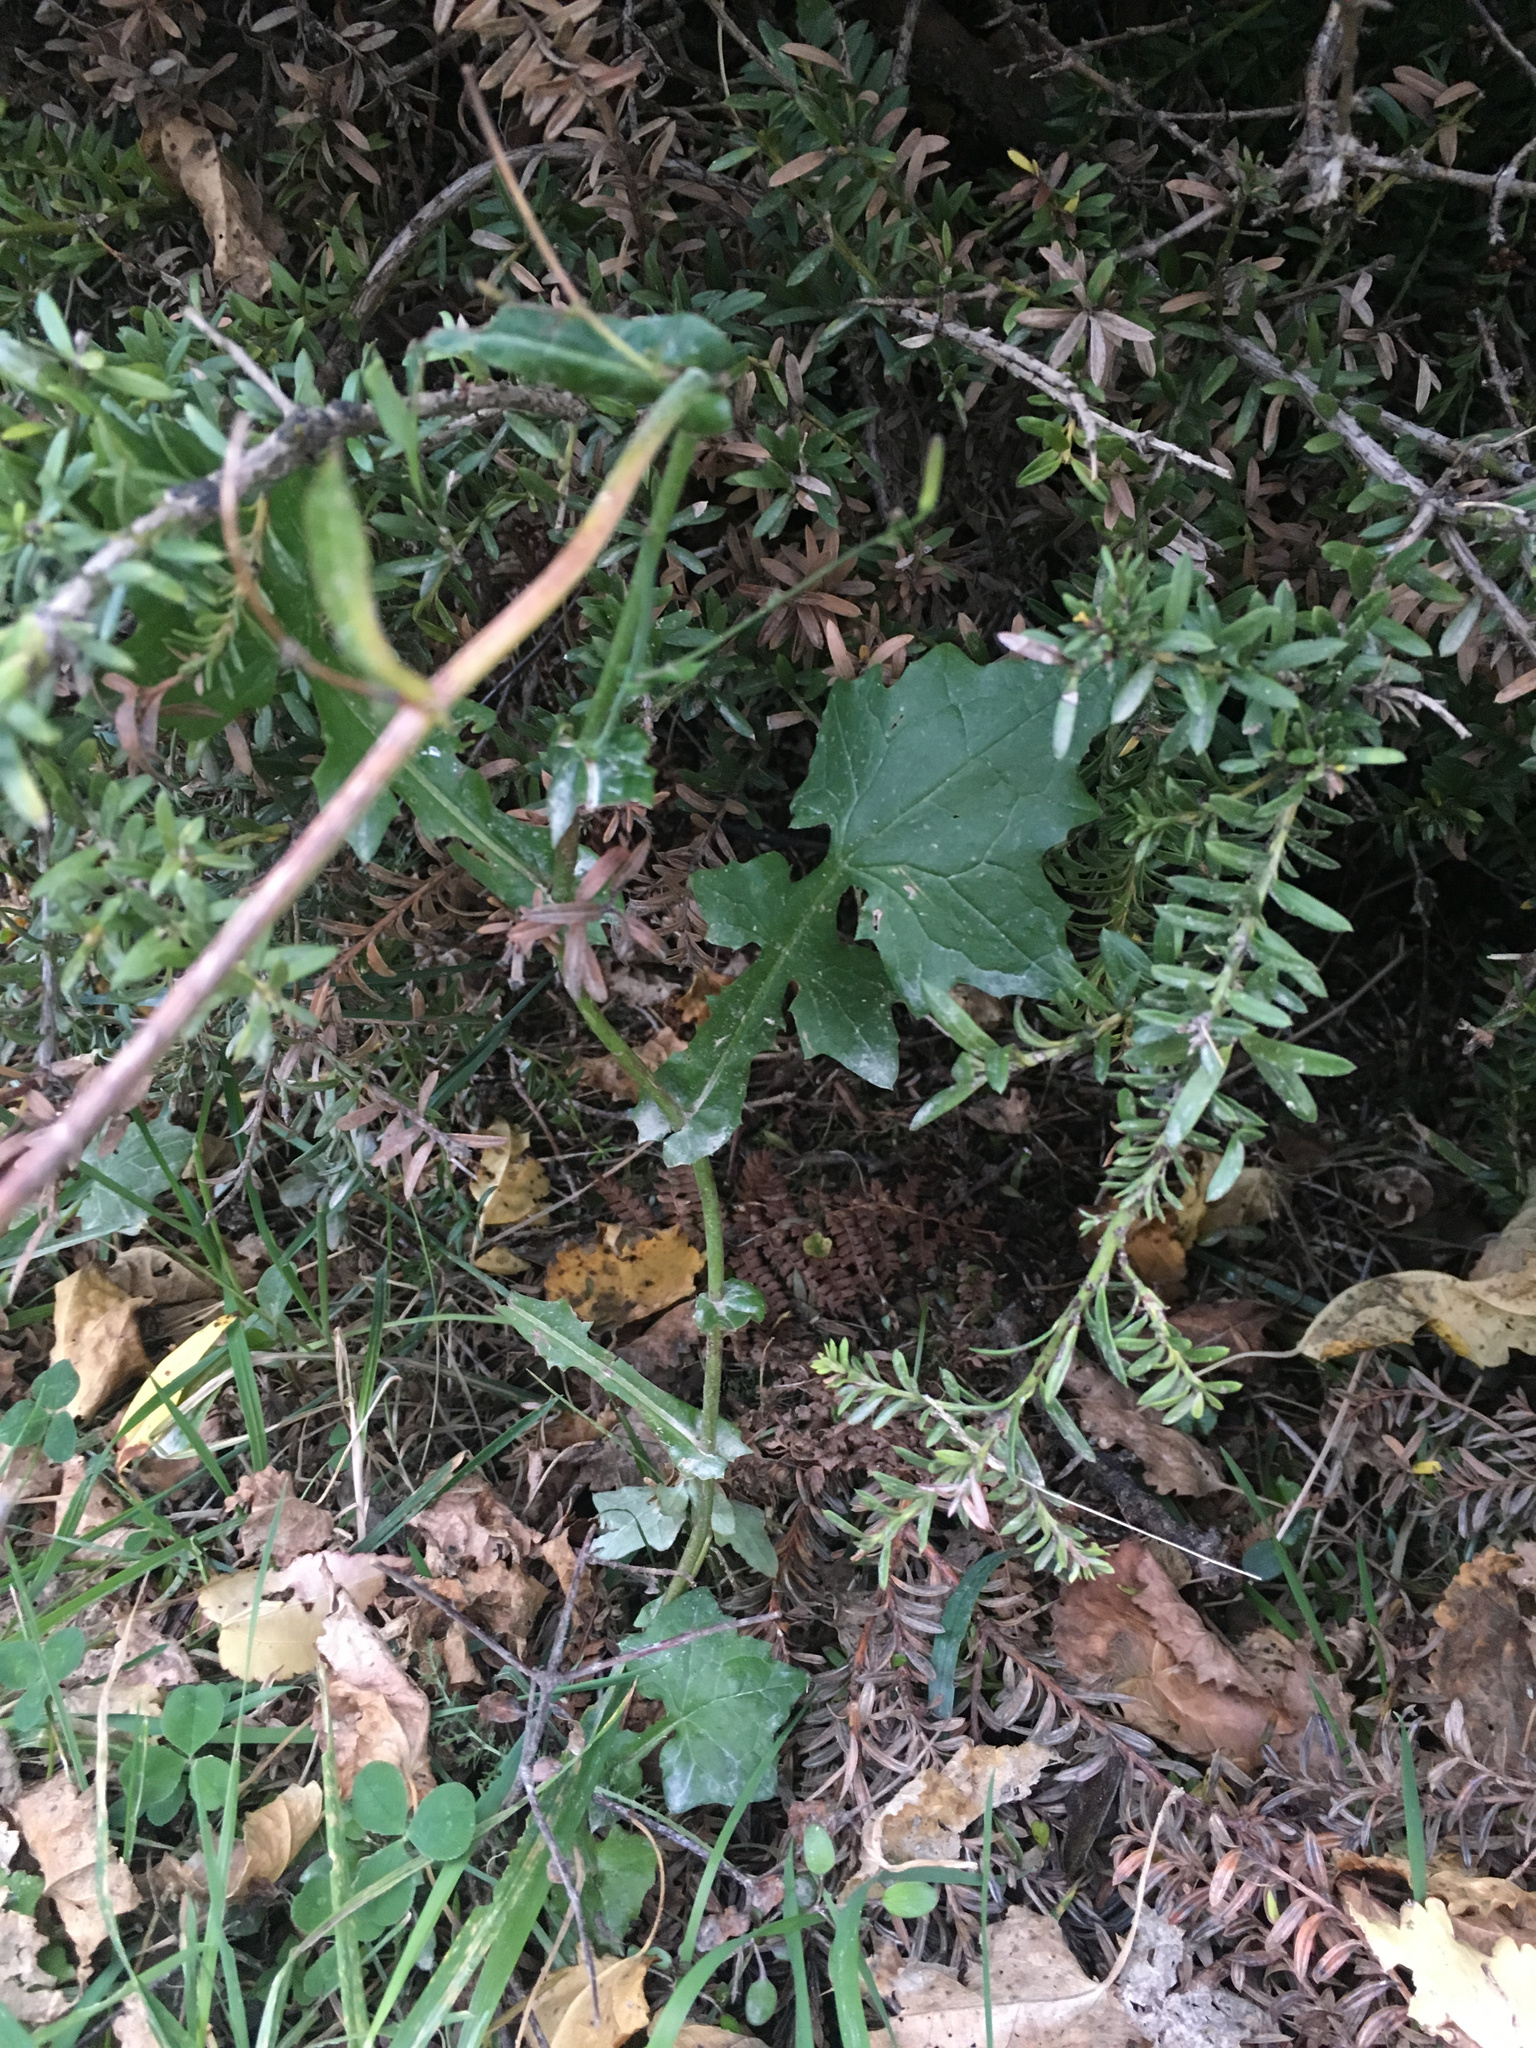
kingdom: Plantae
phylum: Tracheophyta
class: Magnoliopsida
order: Asterales
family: Asteraceae
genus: Mycelis
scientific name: Mycelis muralis
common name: Wall lettuce
